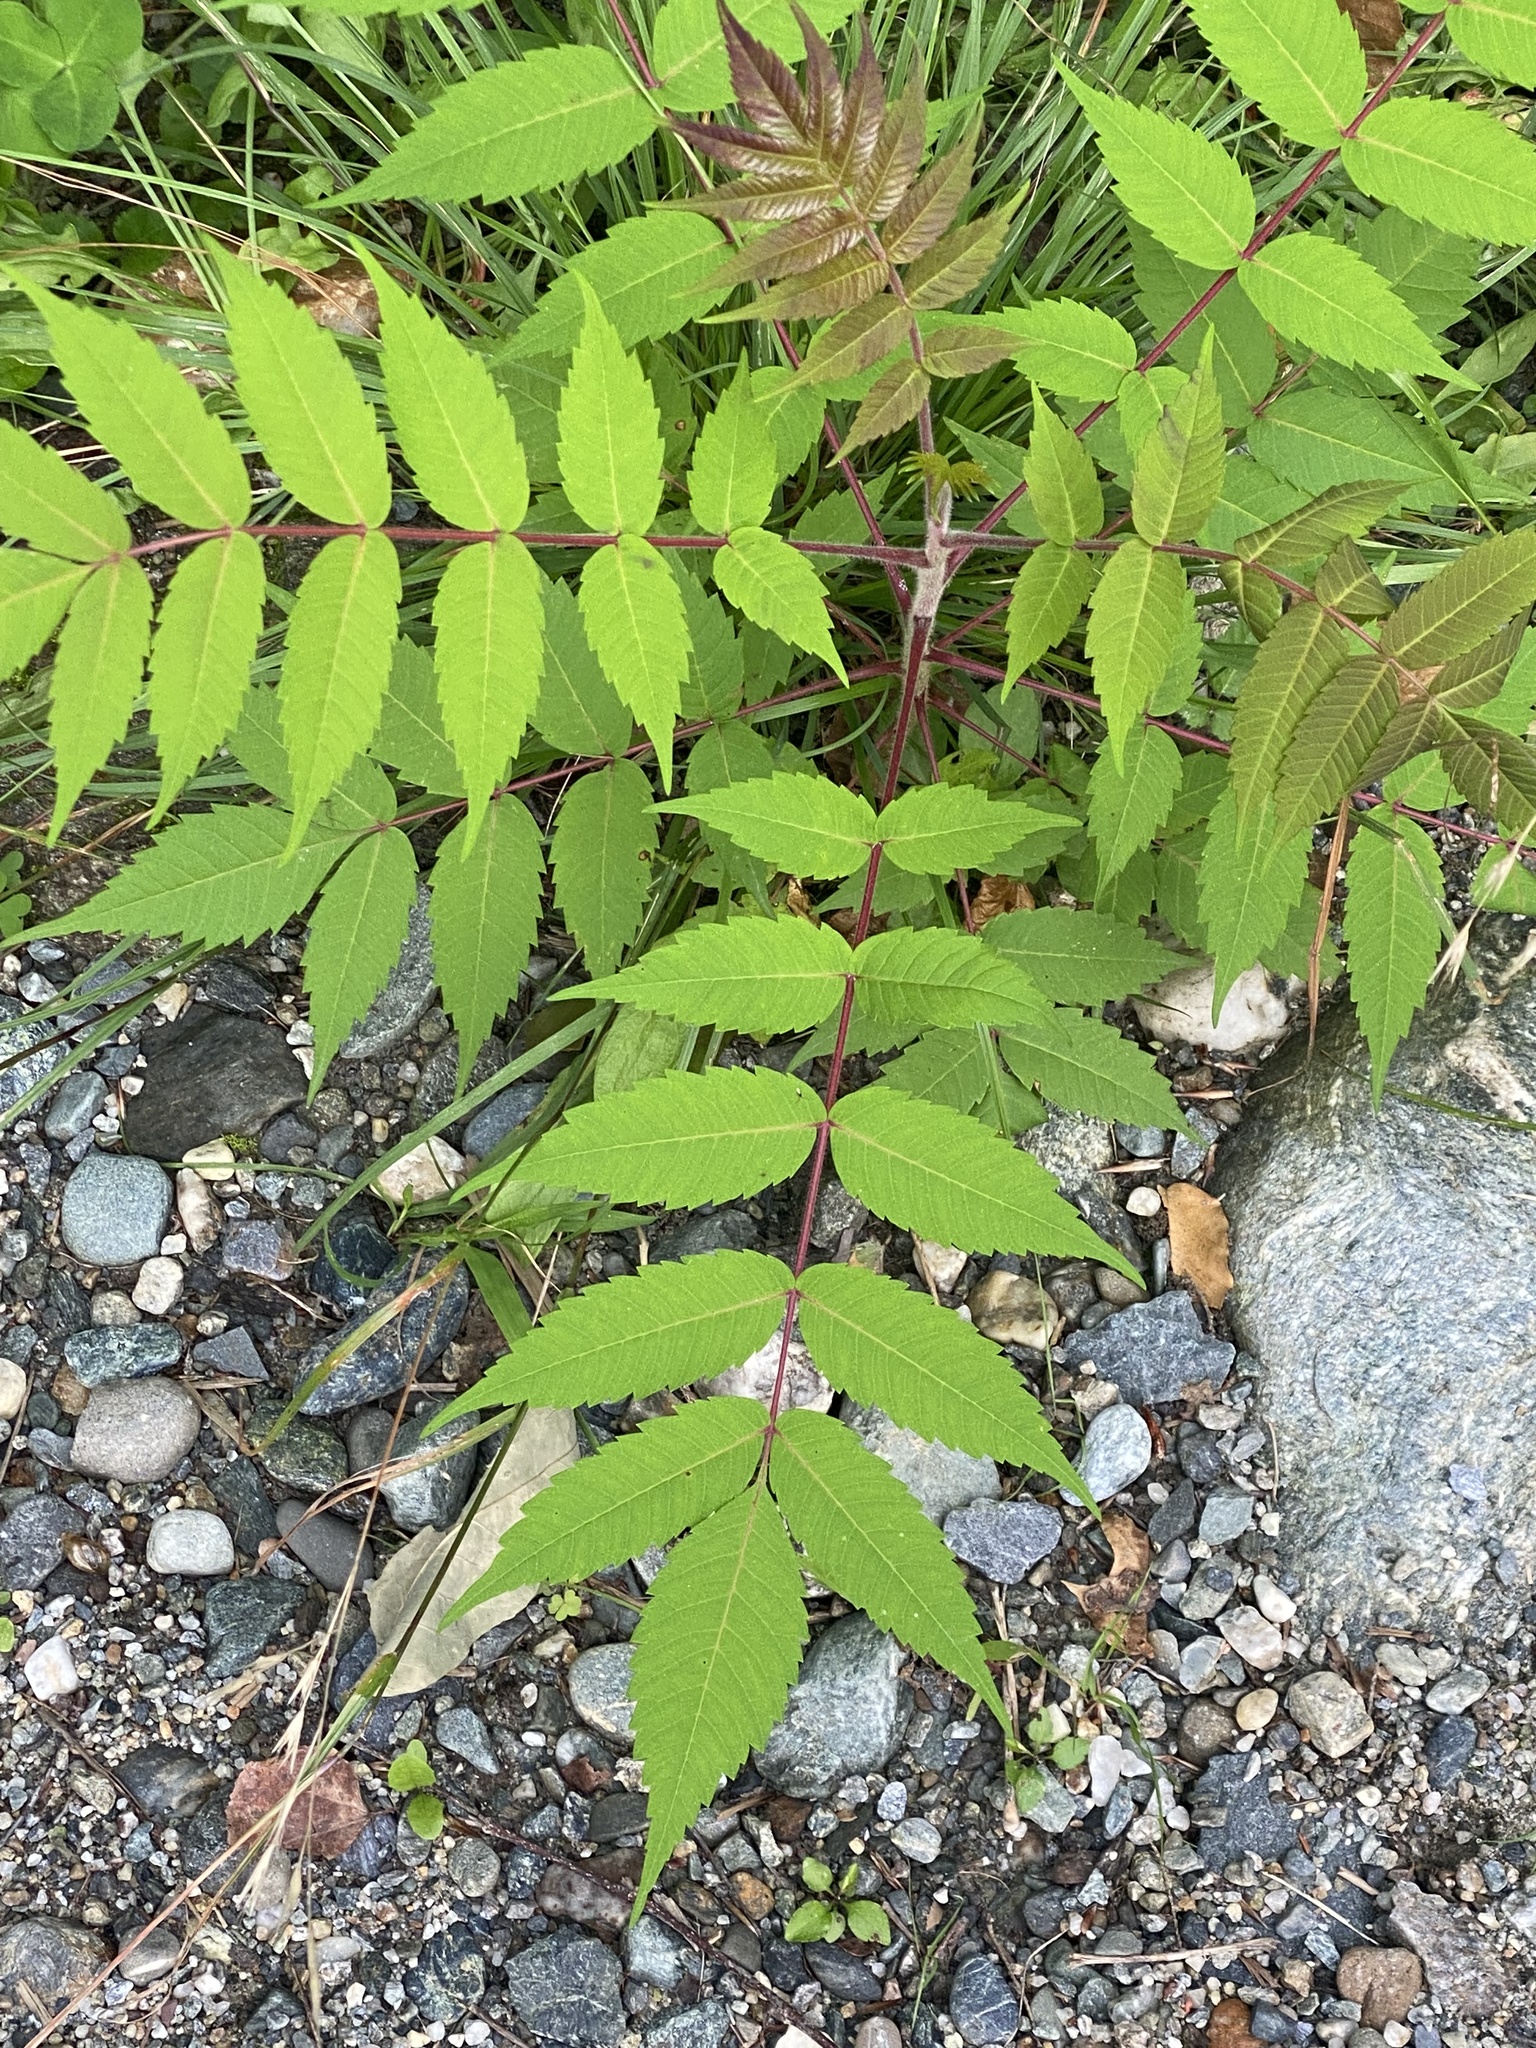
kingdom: Plantae
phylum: Tracheophyta
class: Magnoliopsida
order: Sapindales
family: Anacardiaceae
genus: Rhus
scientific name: Rhus typhina
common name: Staghorn sumac
